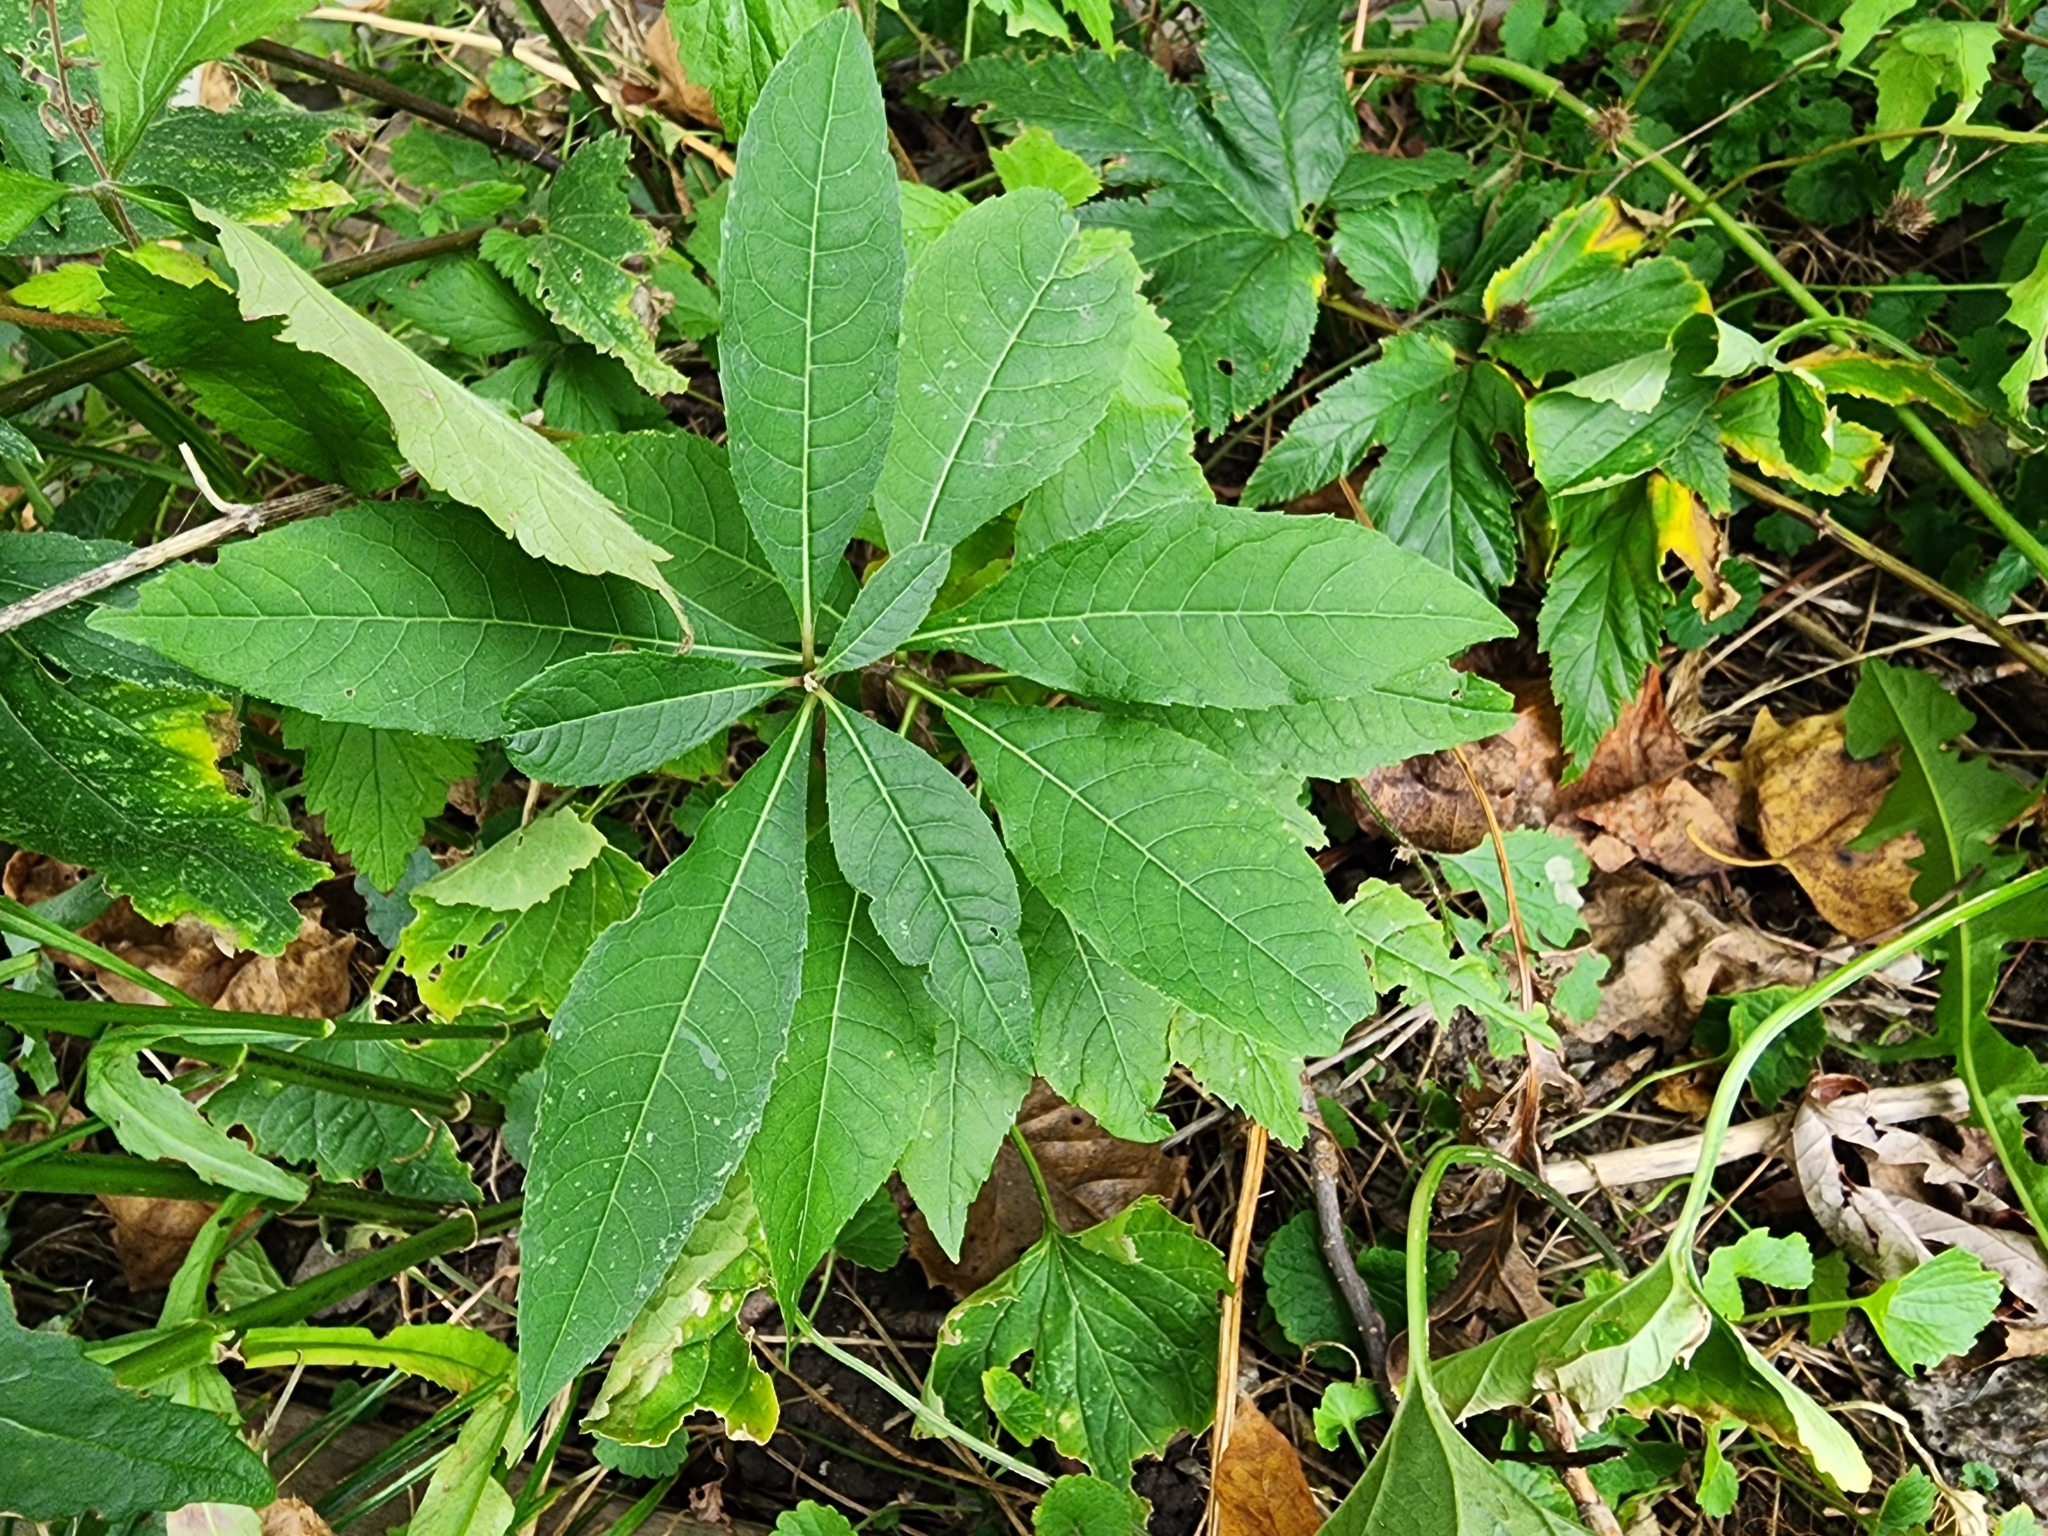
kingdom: Plantae
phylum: Tracheophyta
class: Magnoliopsida
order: Asterales
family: Asteraceae
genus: Elephantopus
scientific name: Elephantopus carolinianus
